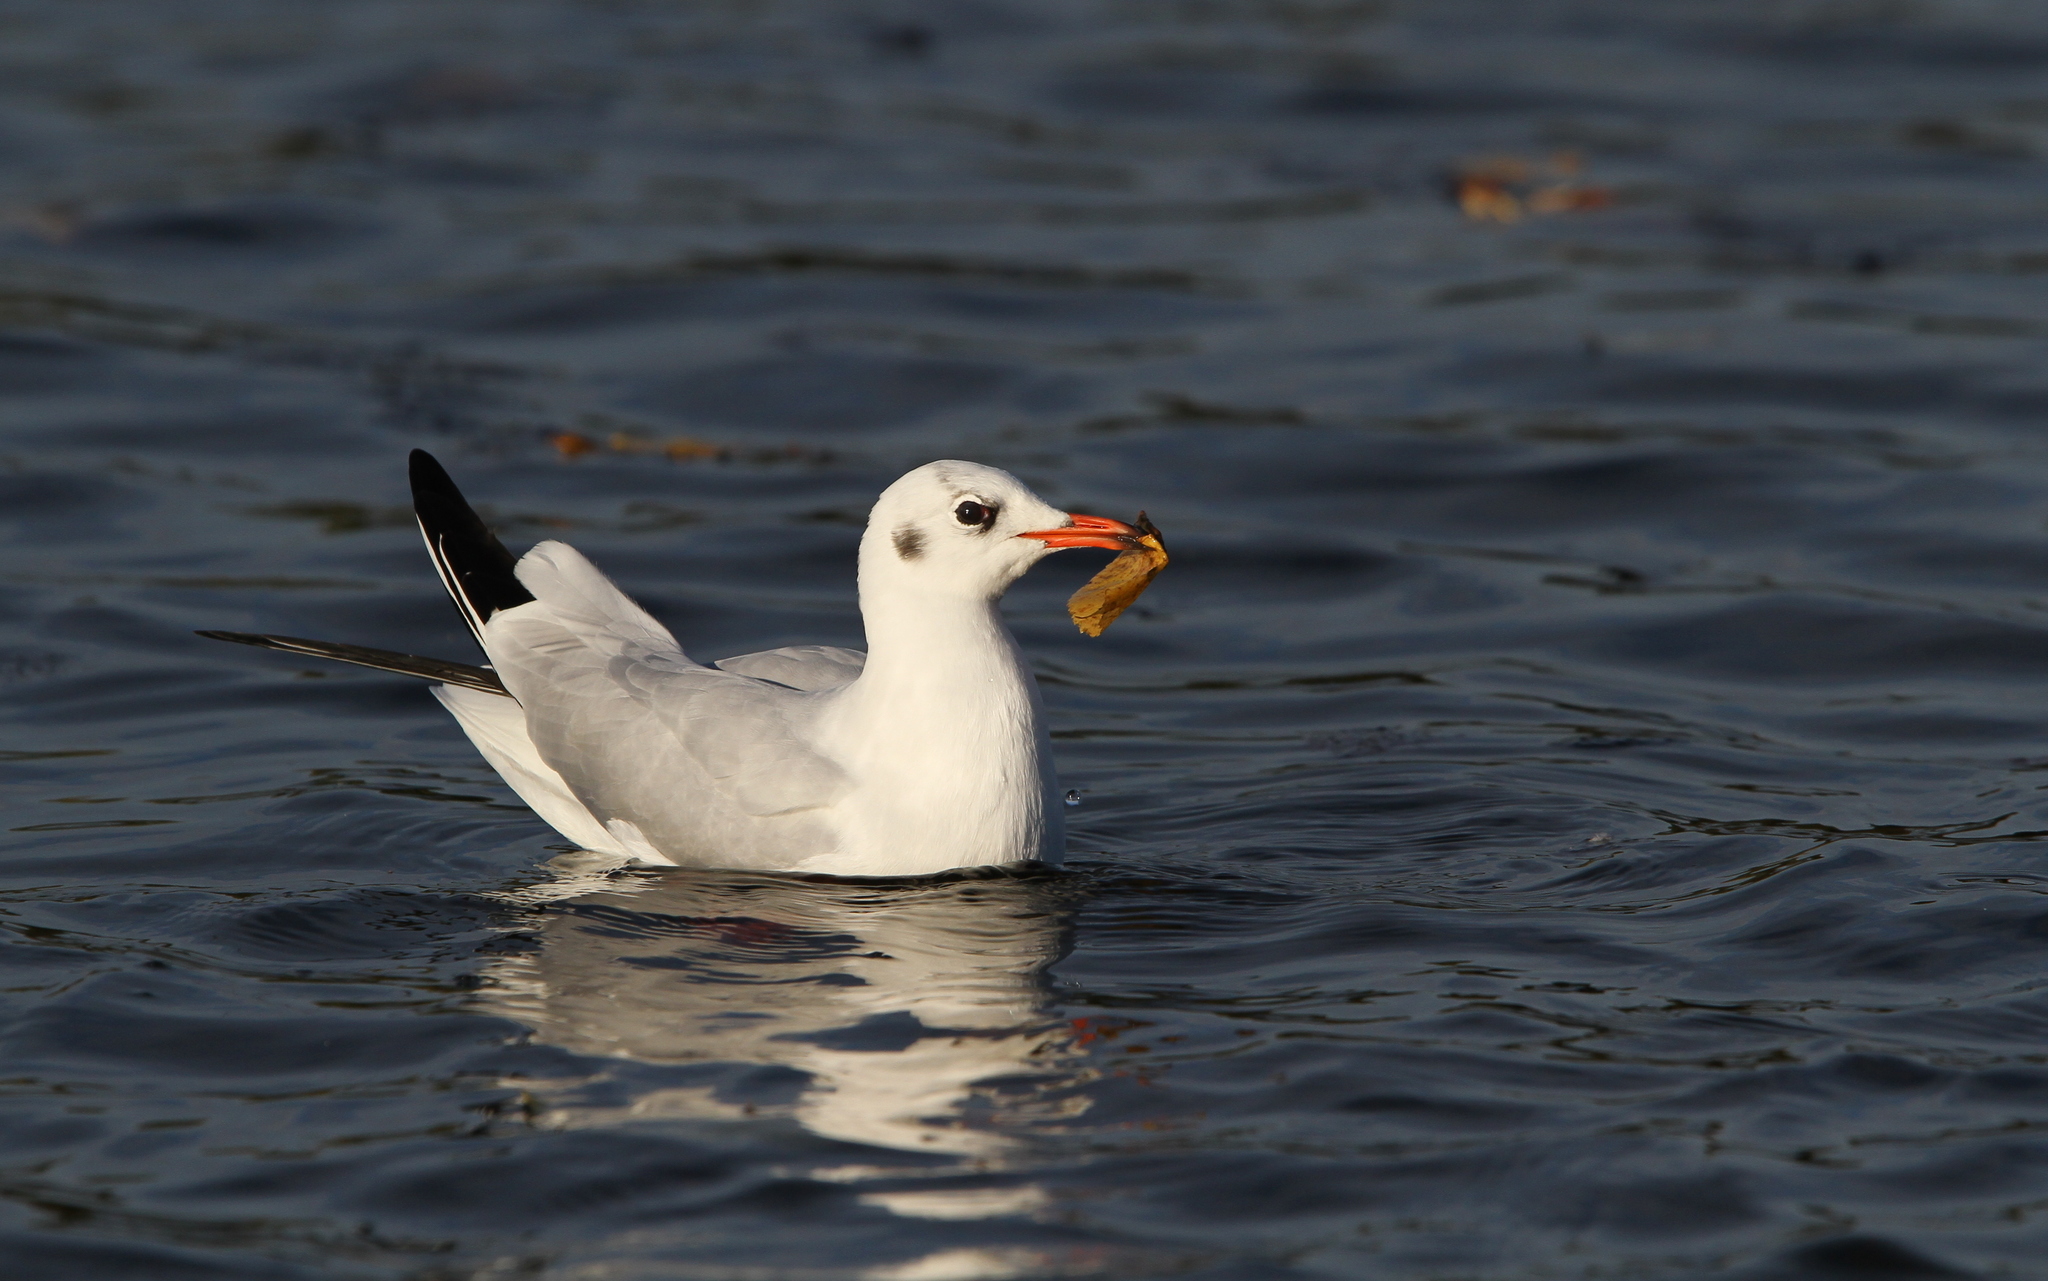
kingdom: Animalia
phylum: Chordata
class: Aves
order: Charadriiformes
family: Laridae
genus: Chroicocephalus
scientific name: Chroicocephalus ridibundus
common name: Black-headed gull
